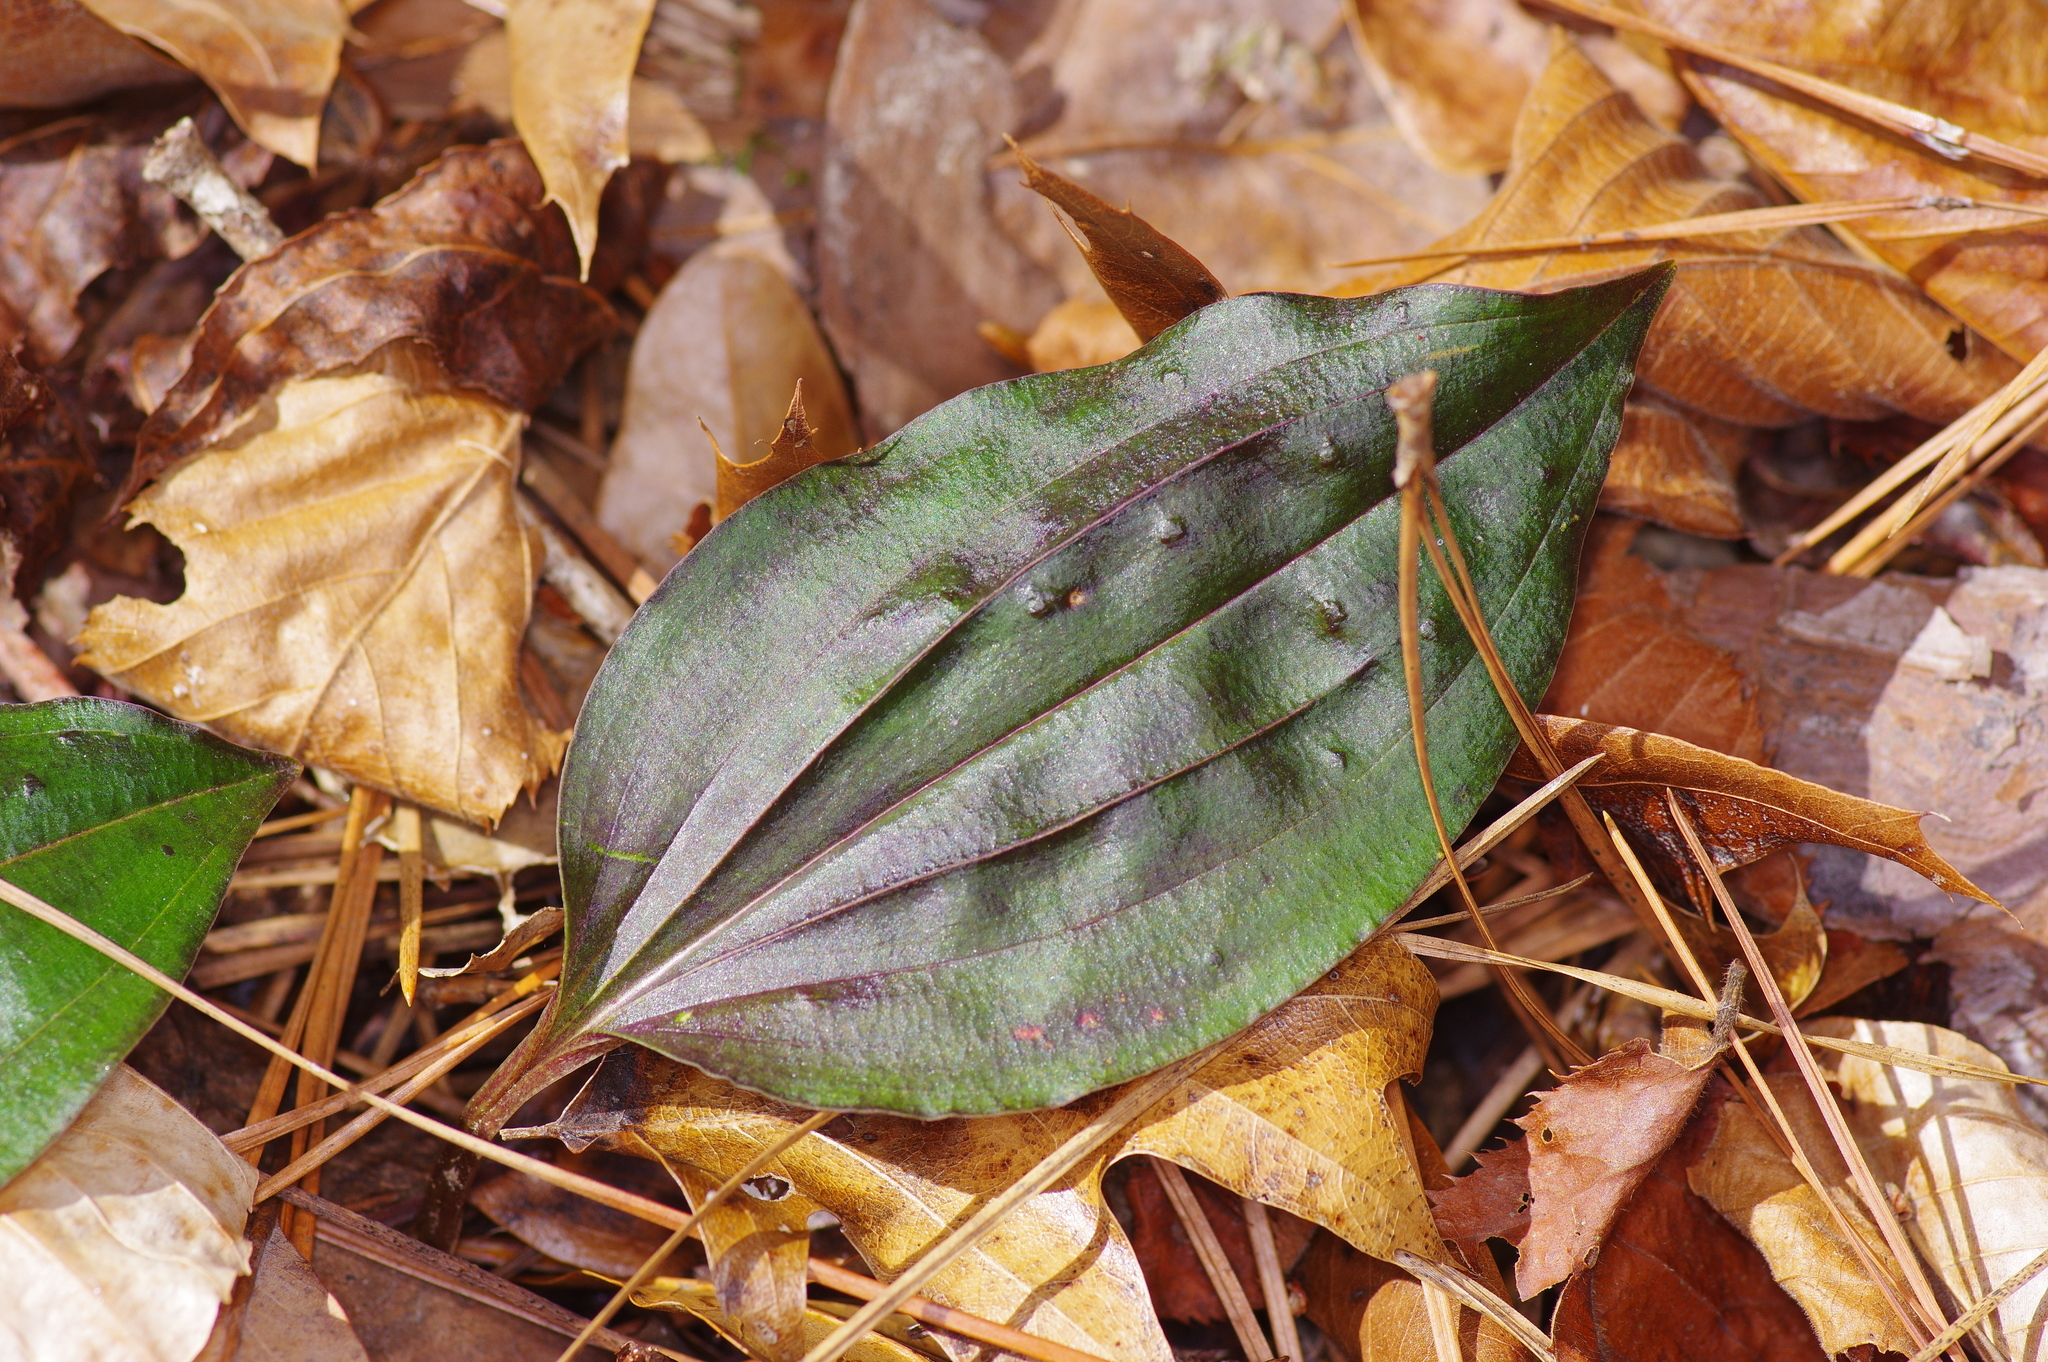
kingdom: Plantae
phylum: Tracheophyta
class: Liliopsida
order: Asparagales
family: Orchidaceae
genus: Tipularia
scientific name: Tipularia discolor
